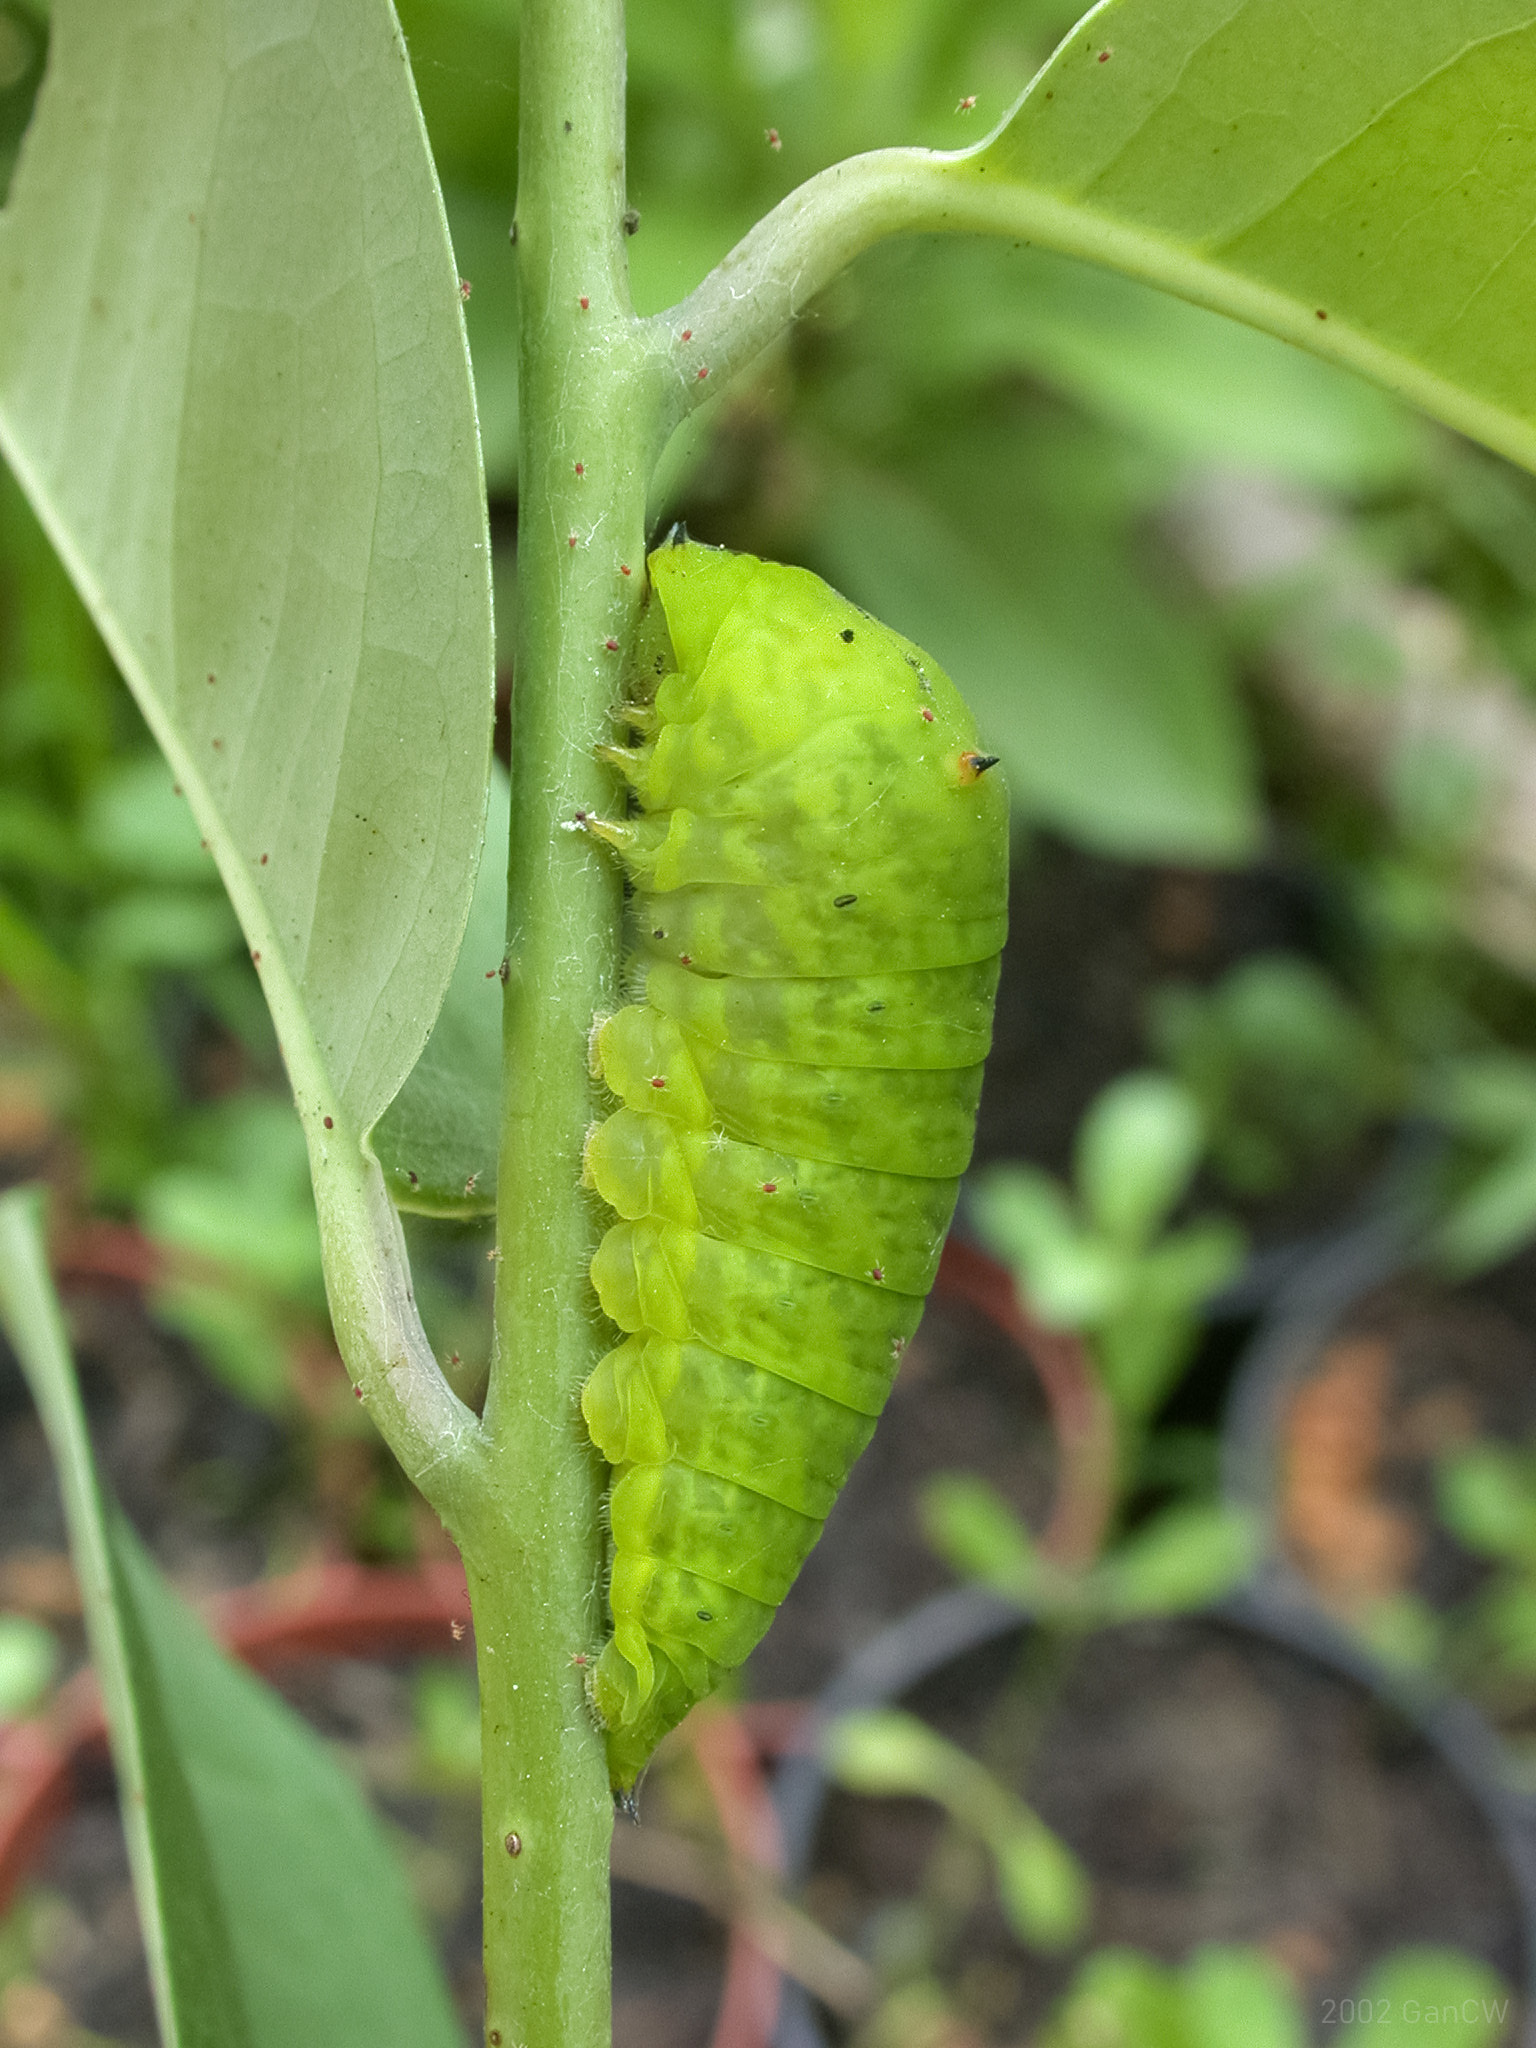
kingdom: Animalia
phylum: Arthropoda
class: Insecta
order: Lepidoptera
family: Papilionidae
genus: Graphium
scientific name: Graphium agamemnon
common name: Tailed jay
